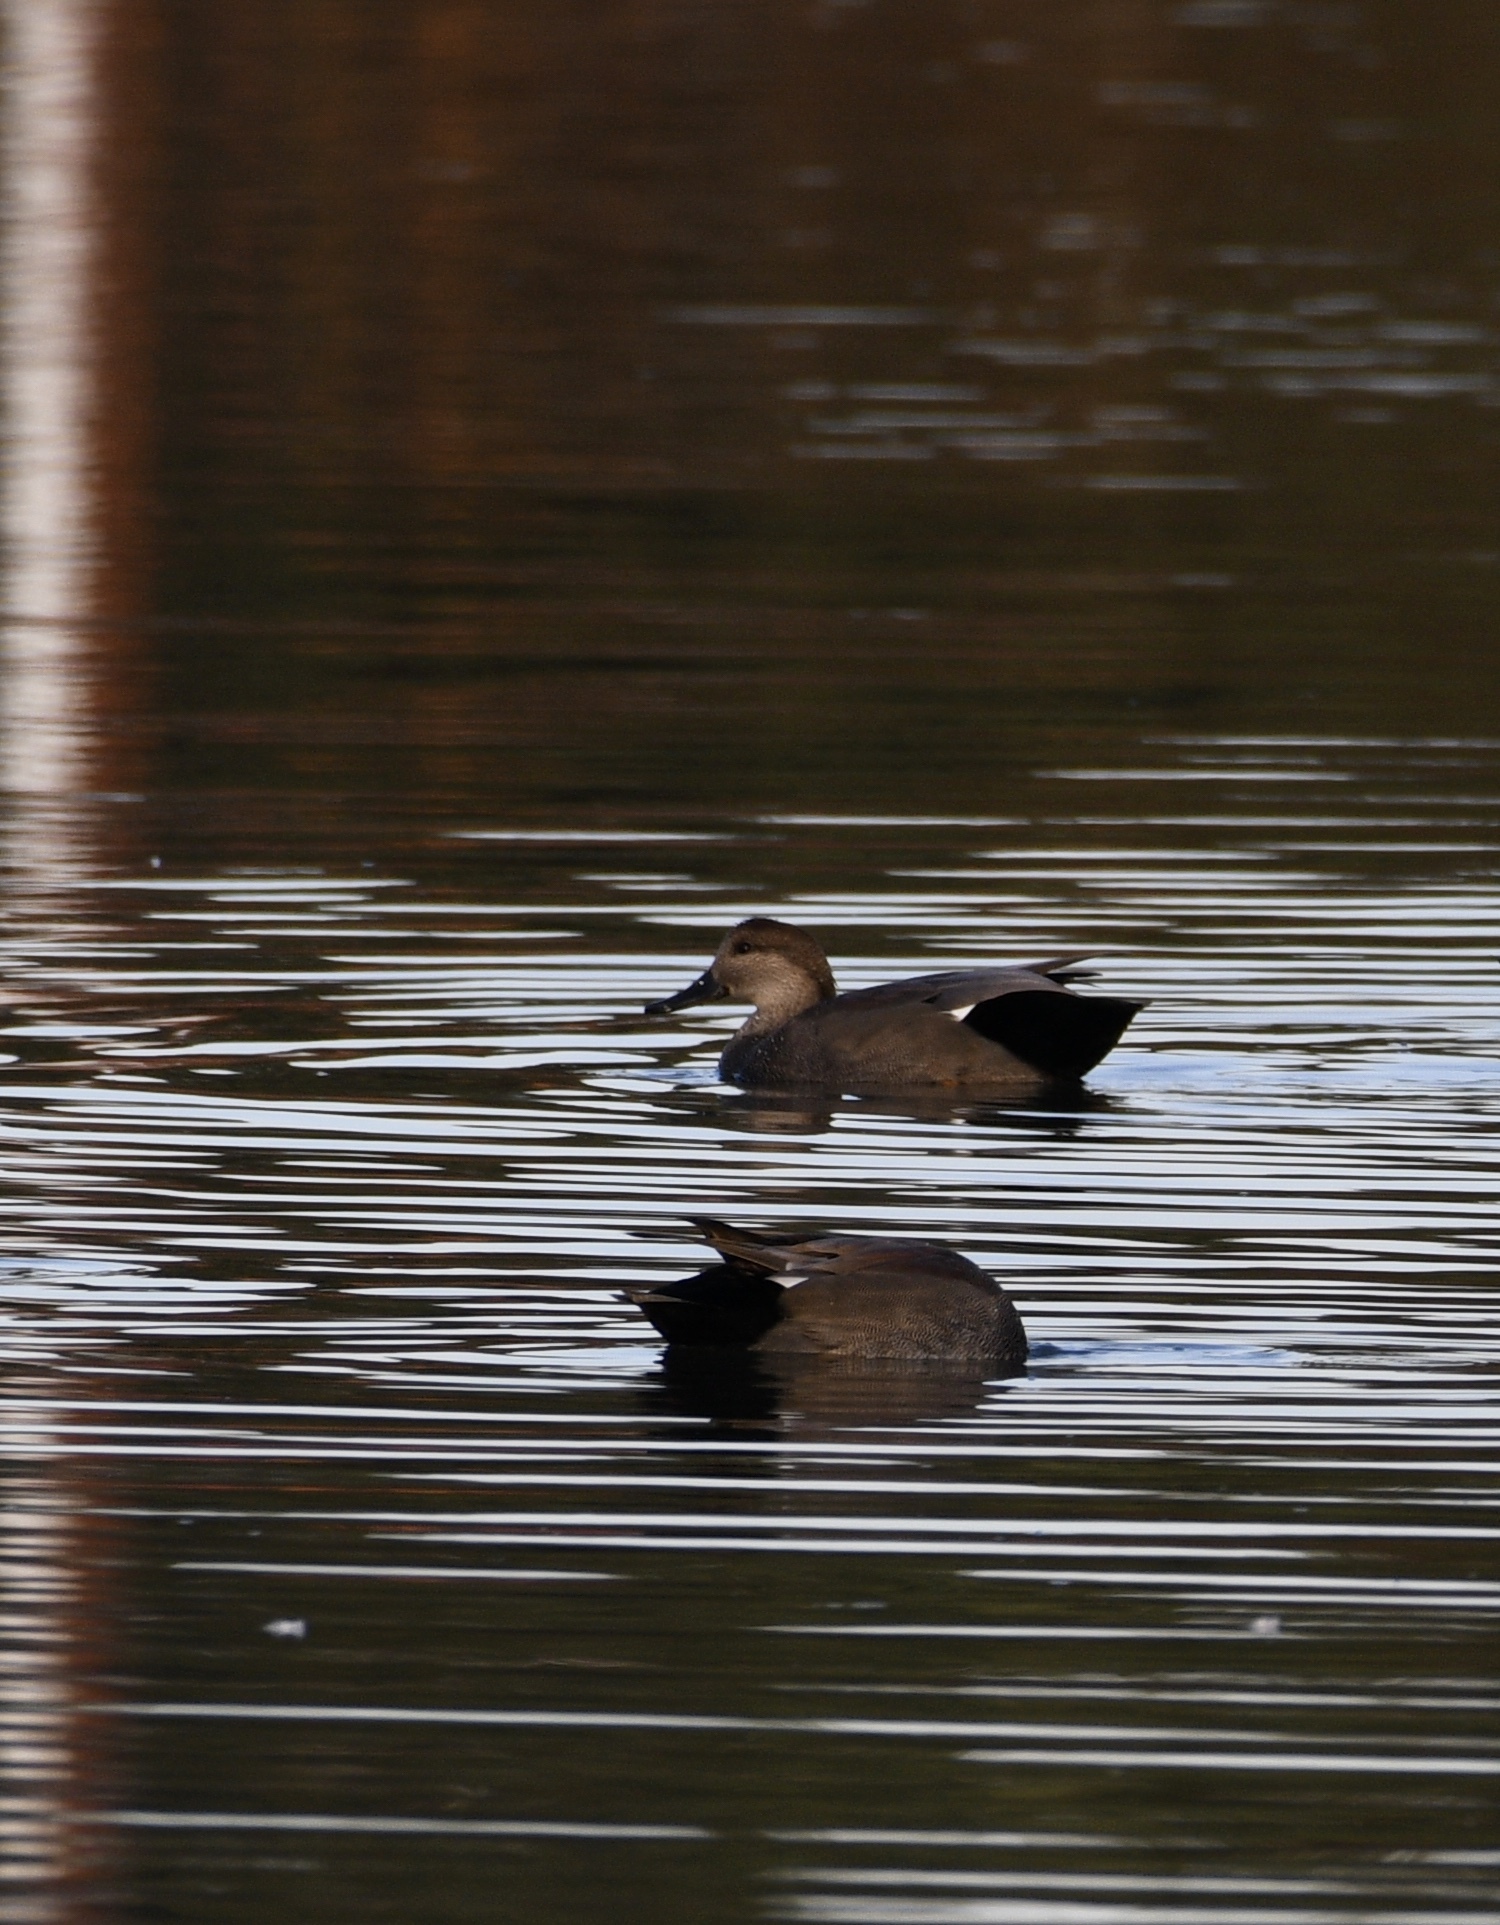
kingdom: Animalia
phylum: Chordata
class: Aves
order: Anseriformes
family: Anatidae
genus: Mareca
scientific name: Mareca strepera
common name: Gadwall
